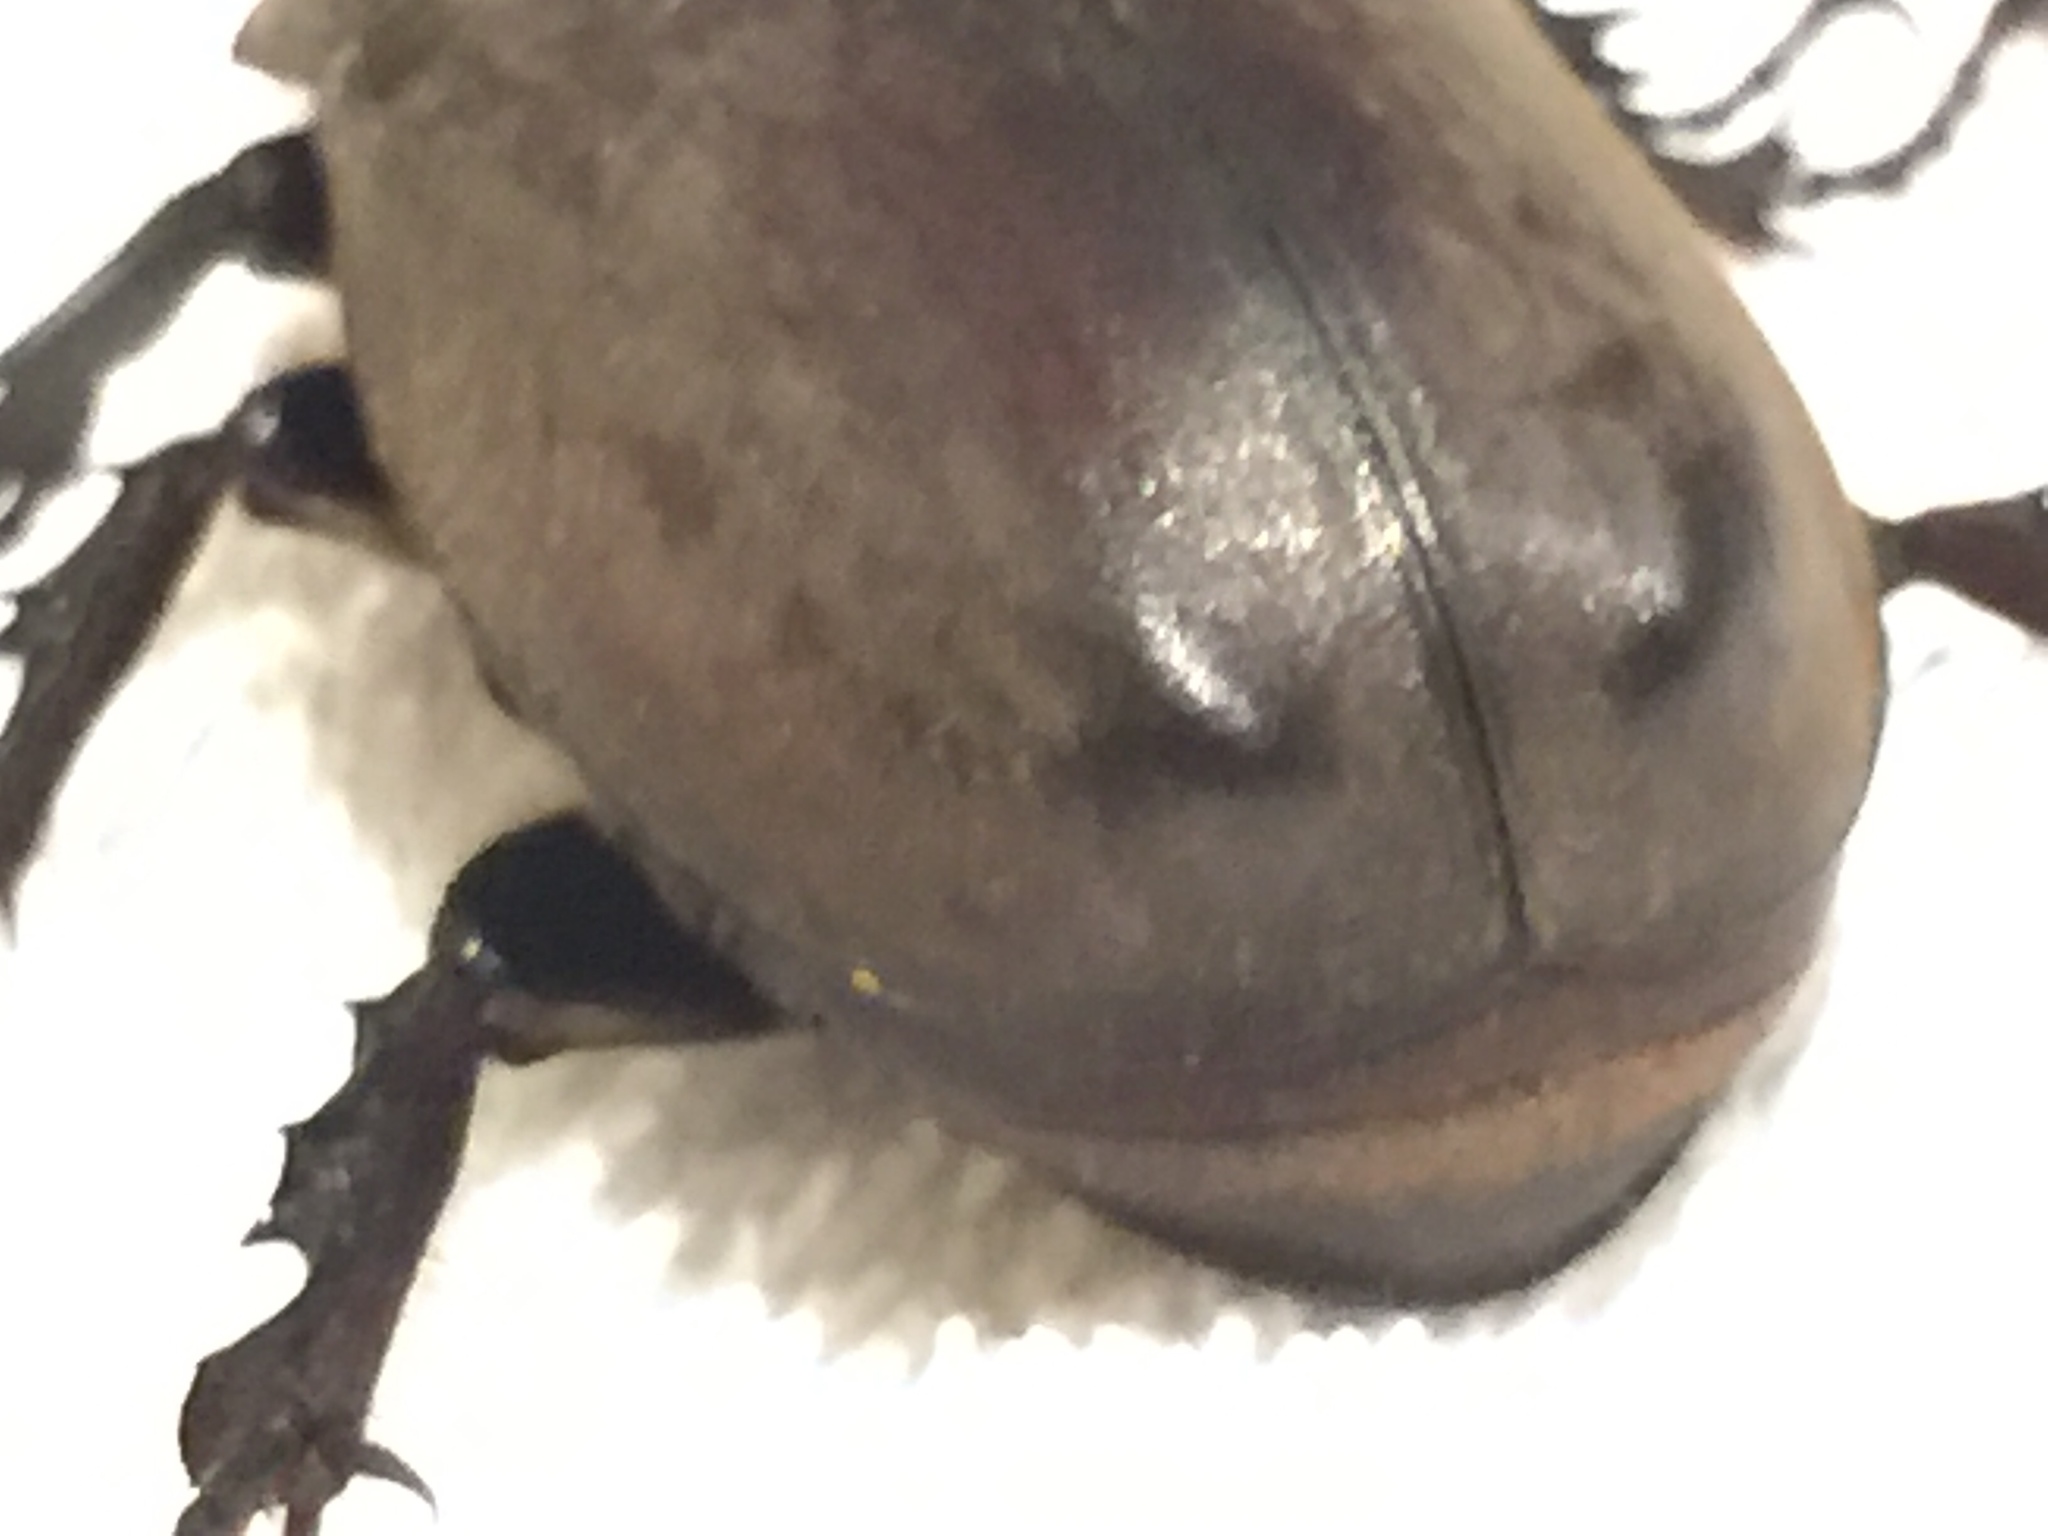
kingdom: Animalia
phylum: Arthropoda
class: Insecta
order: Coleoptera
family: Scarabaeidae
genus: Trypoxylus
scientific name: Trypoxylus dichotomus
